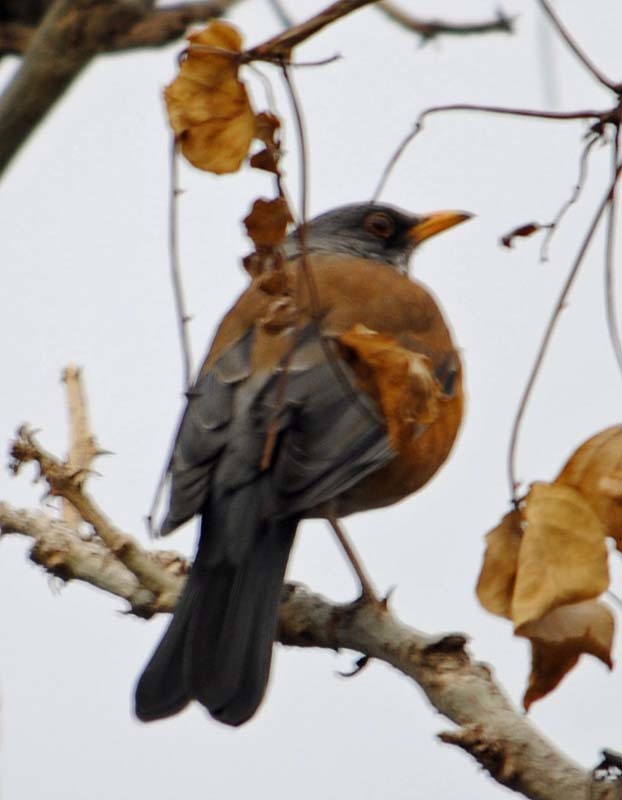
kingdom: Animalia
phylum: Chordata
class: Aves
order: Passeriformes
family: Turdidae
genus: Turdus
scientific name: Turdus rufopalliatus
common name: Rufous-backed robin
